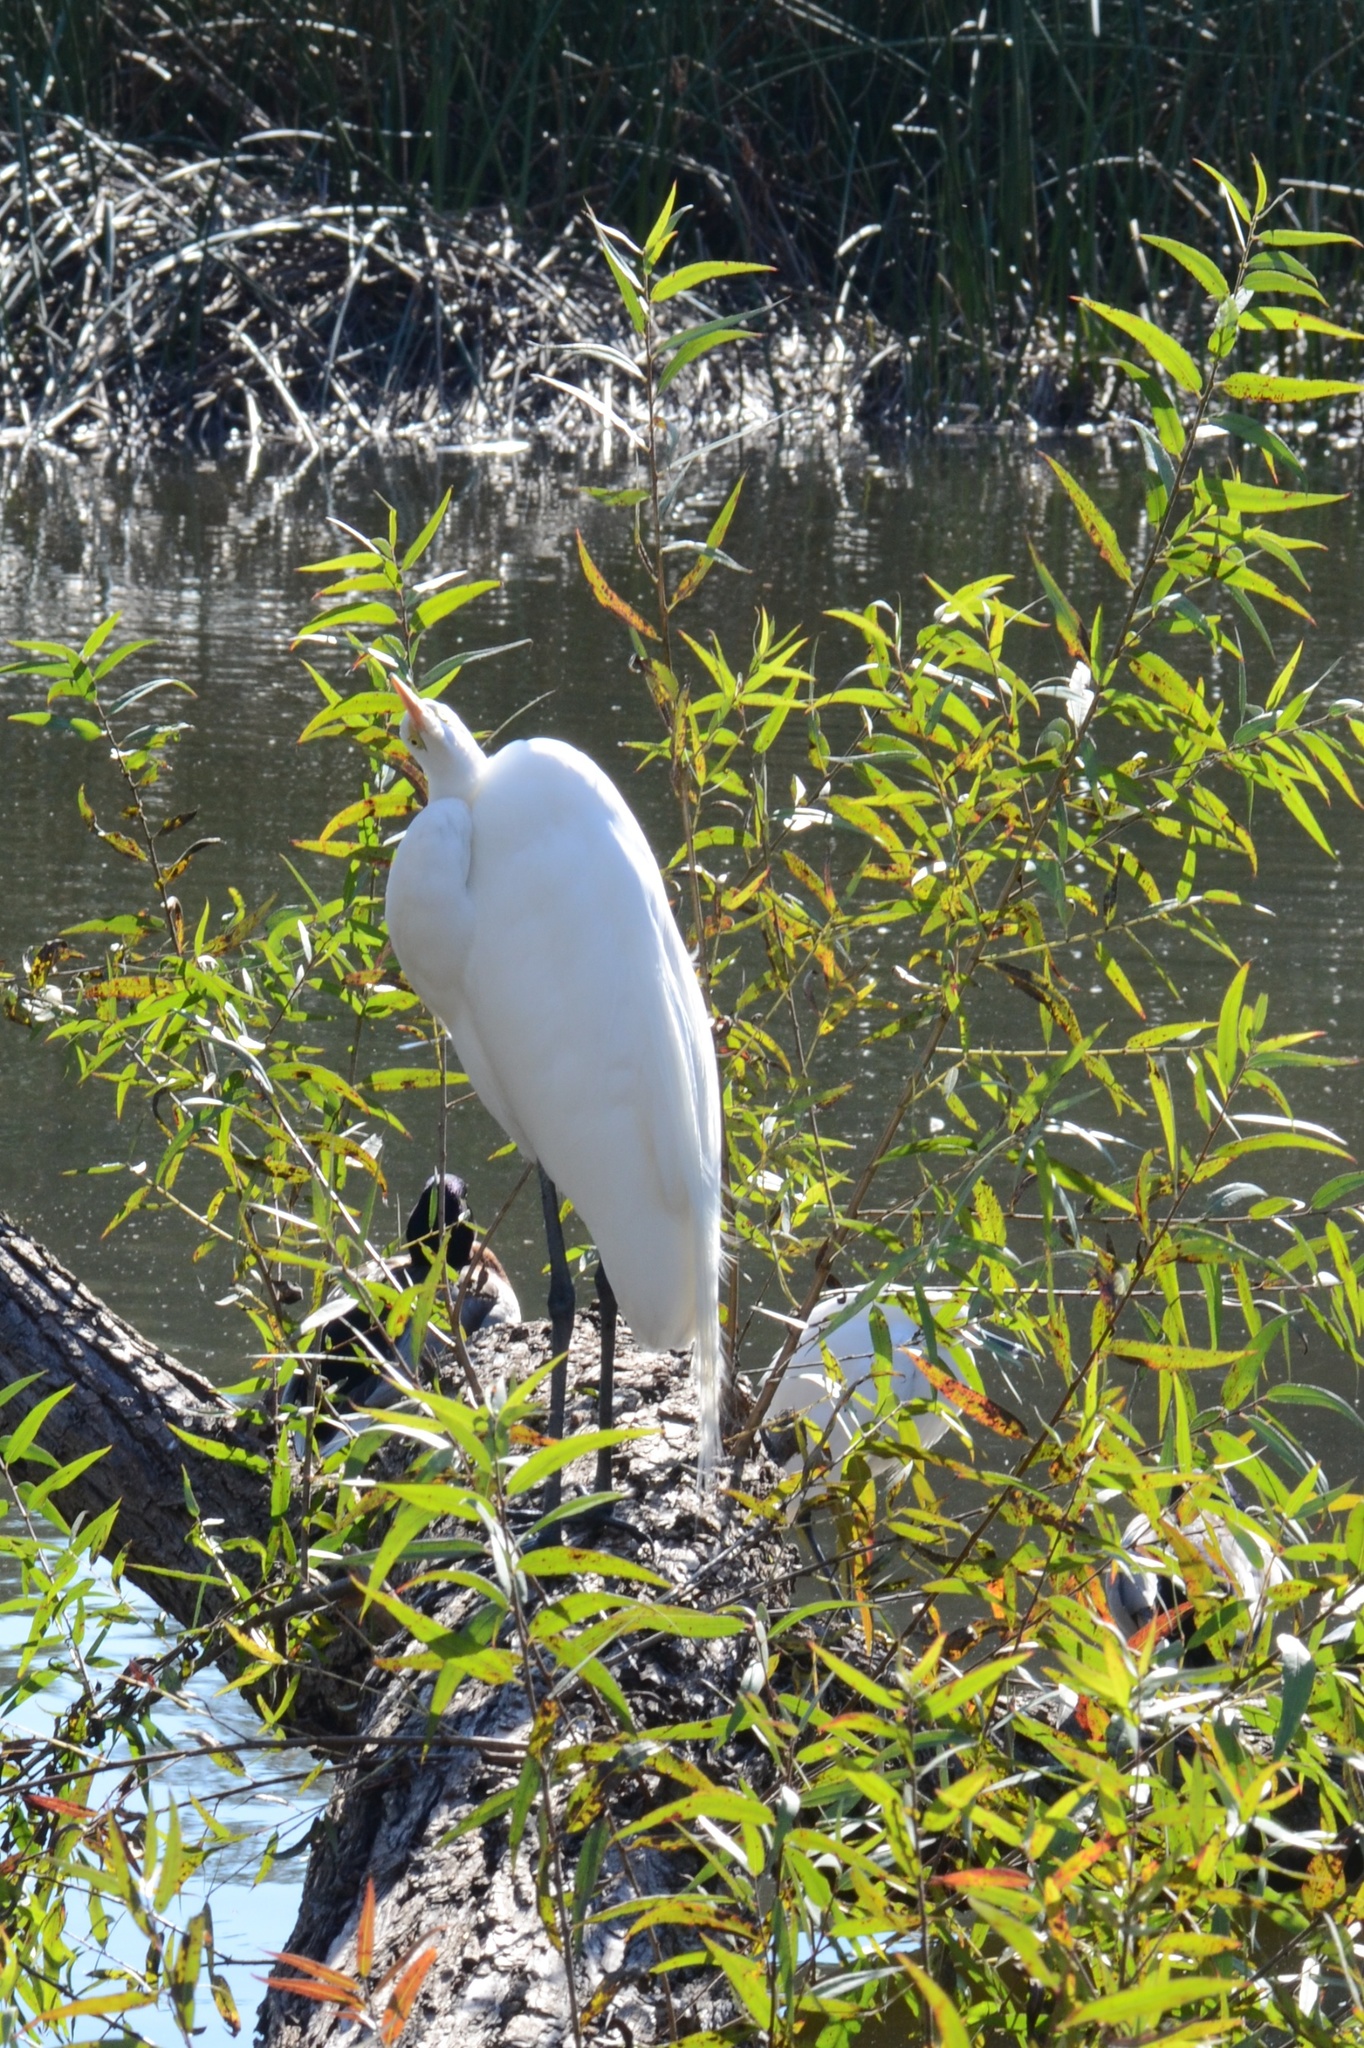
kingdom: Animalia
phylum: Chordata
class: Aves
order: Pelecaniformes
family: Ardeidae
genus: Ardea
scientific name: Ardea alba
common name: Great egret
